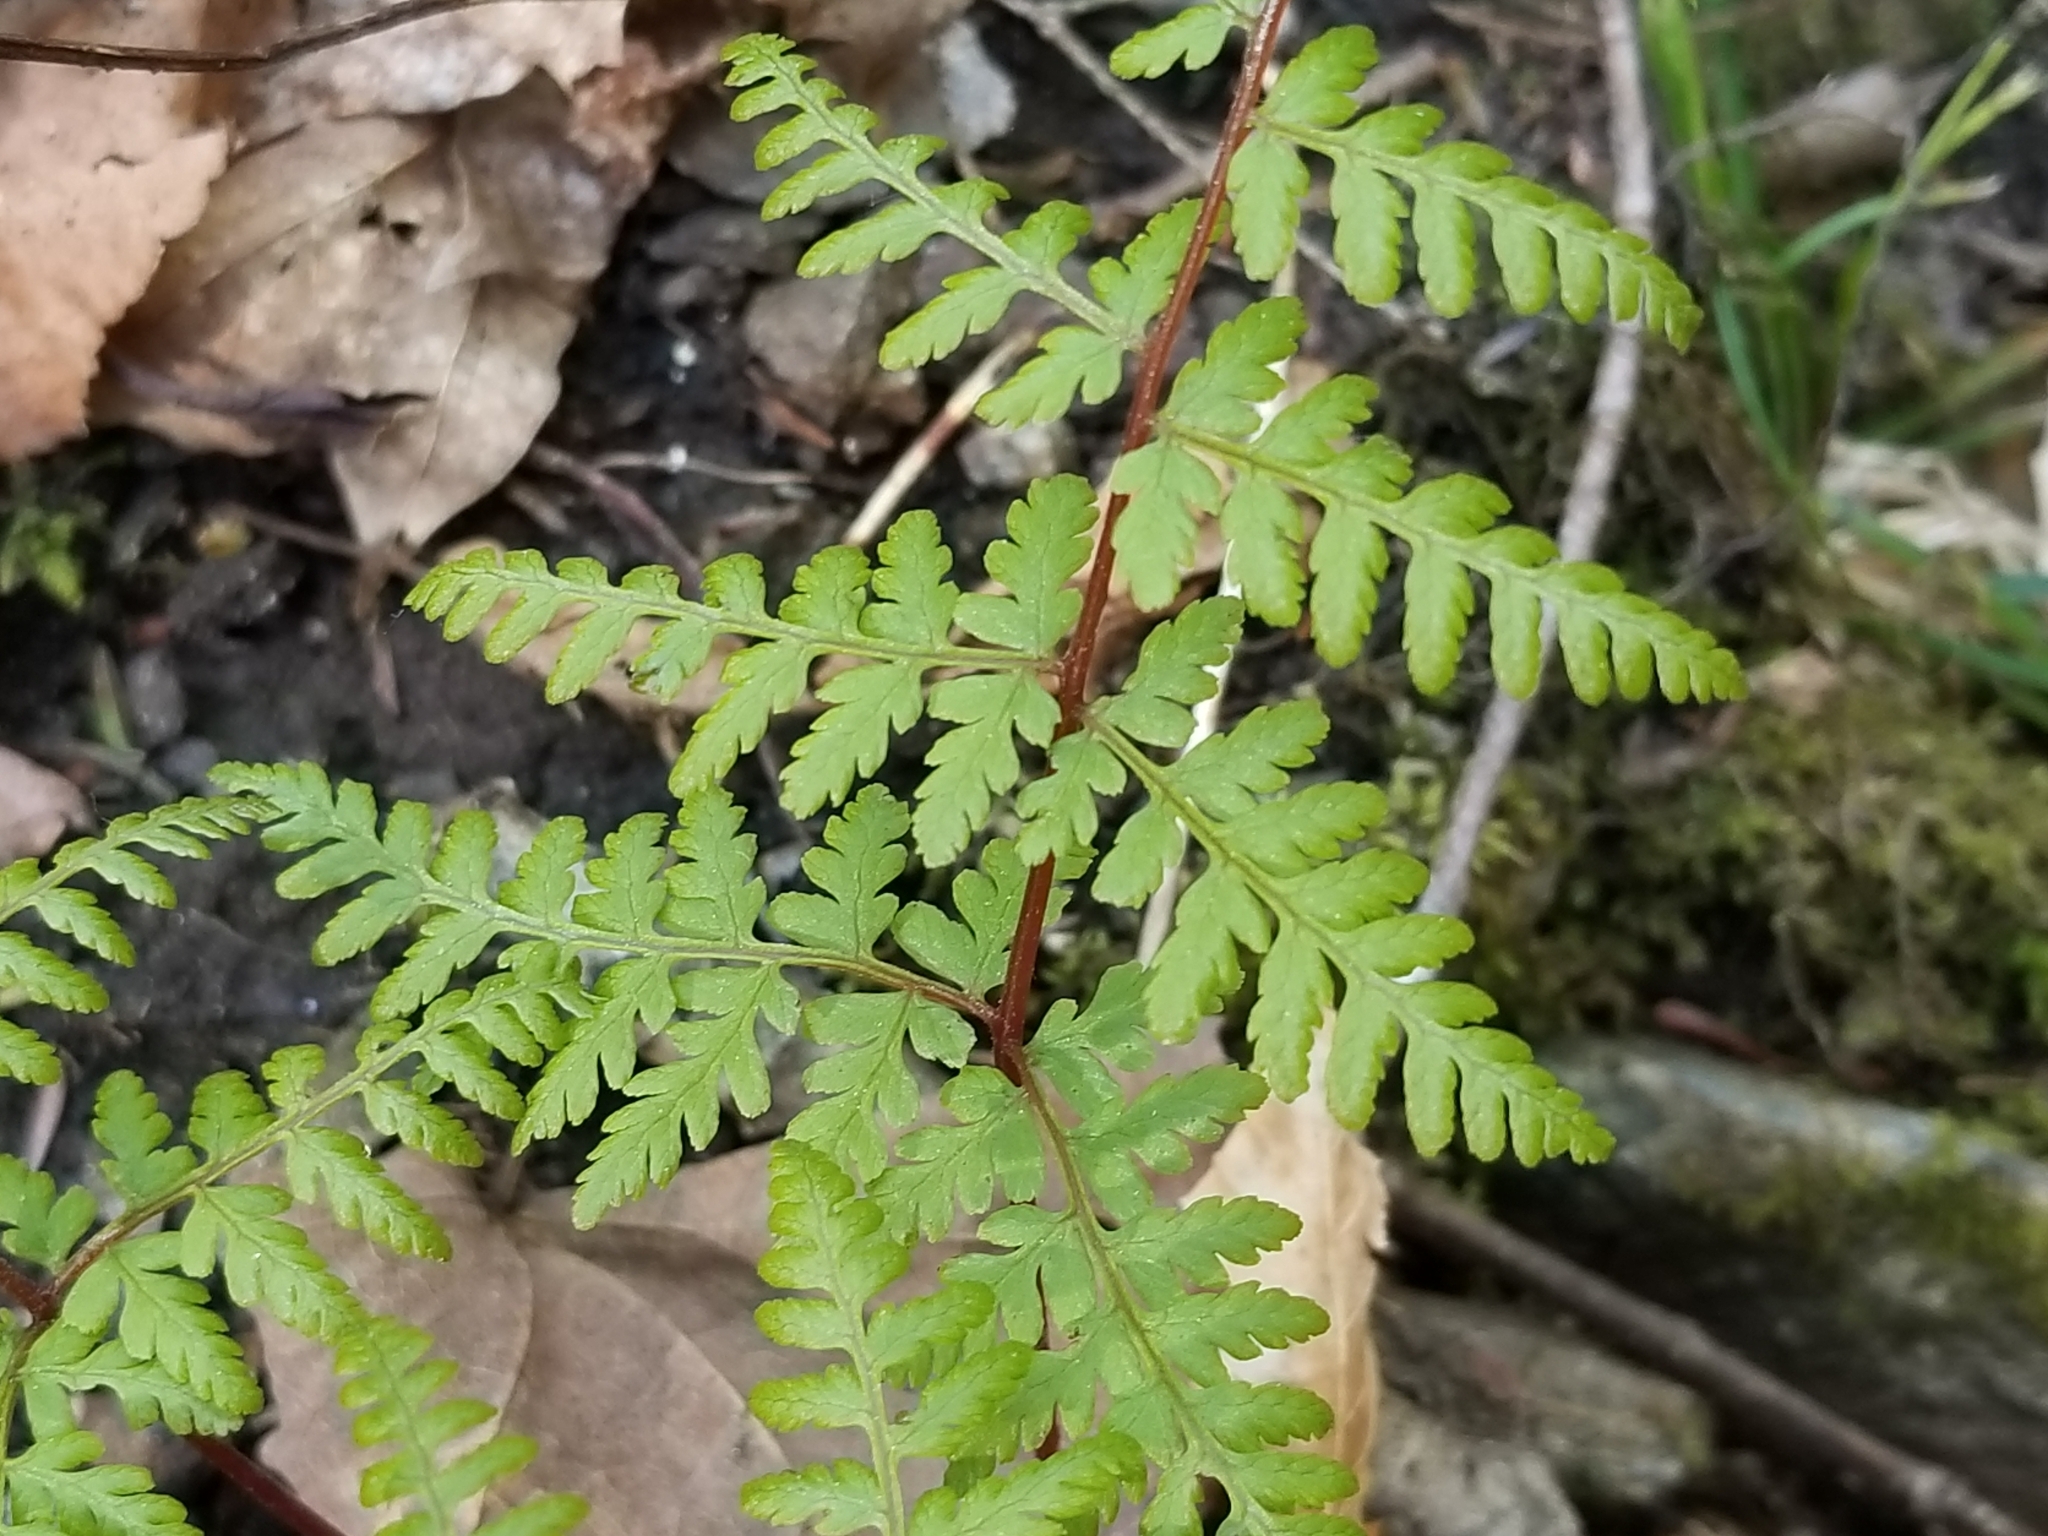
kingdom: Plantae
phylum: Tracheophyta
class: Polypodiopsida
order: Polypodiales
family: Cystopteridaceae
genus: Cystopteris
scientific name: Cystopteris bulbifera
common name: Bulblet bladder fern
